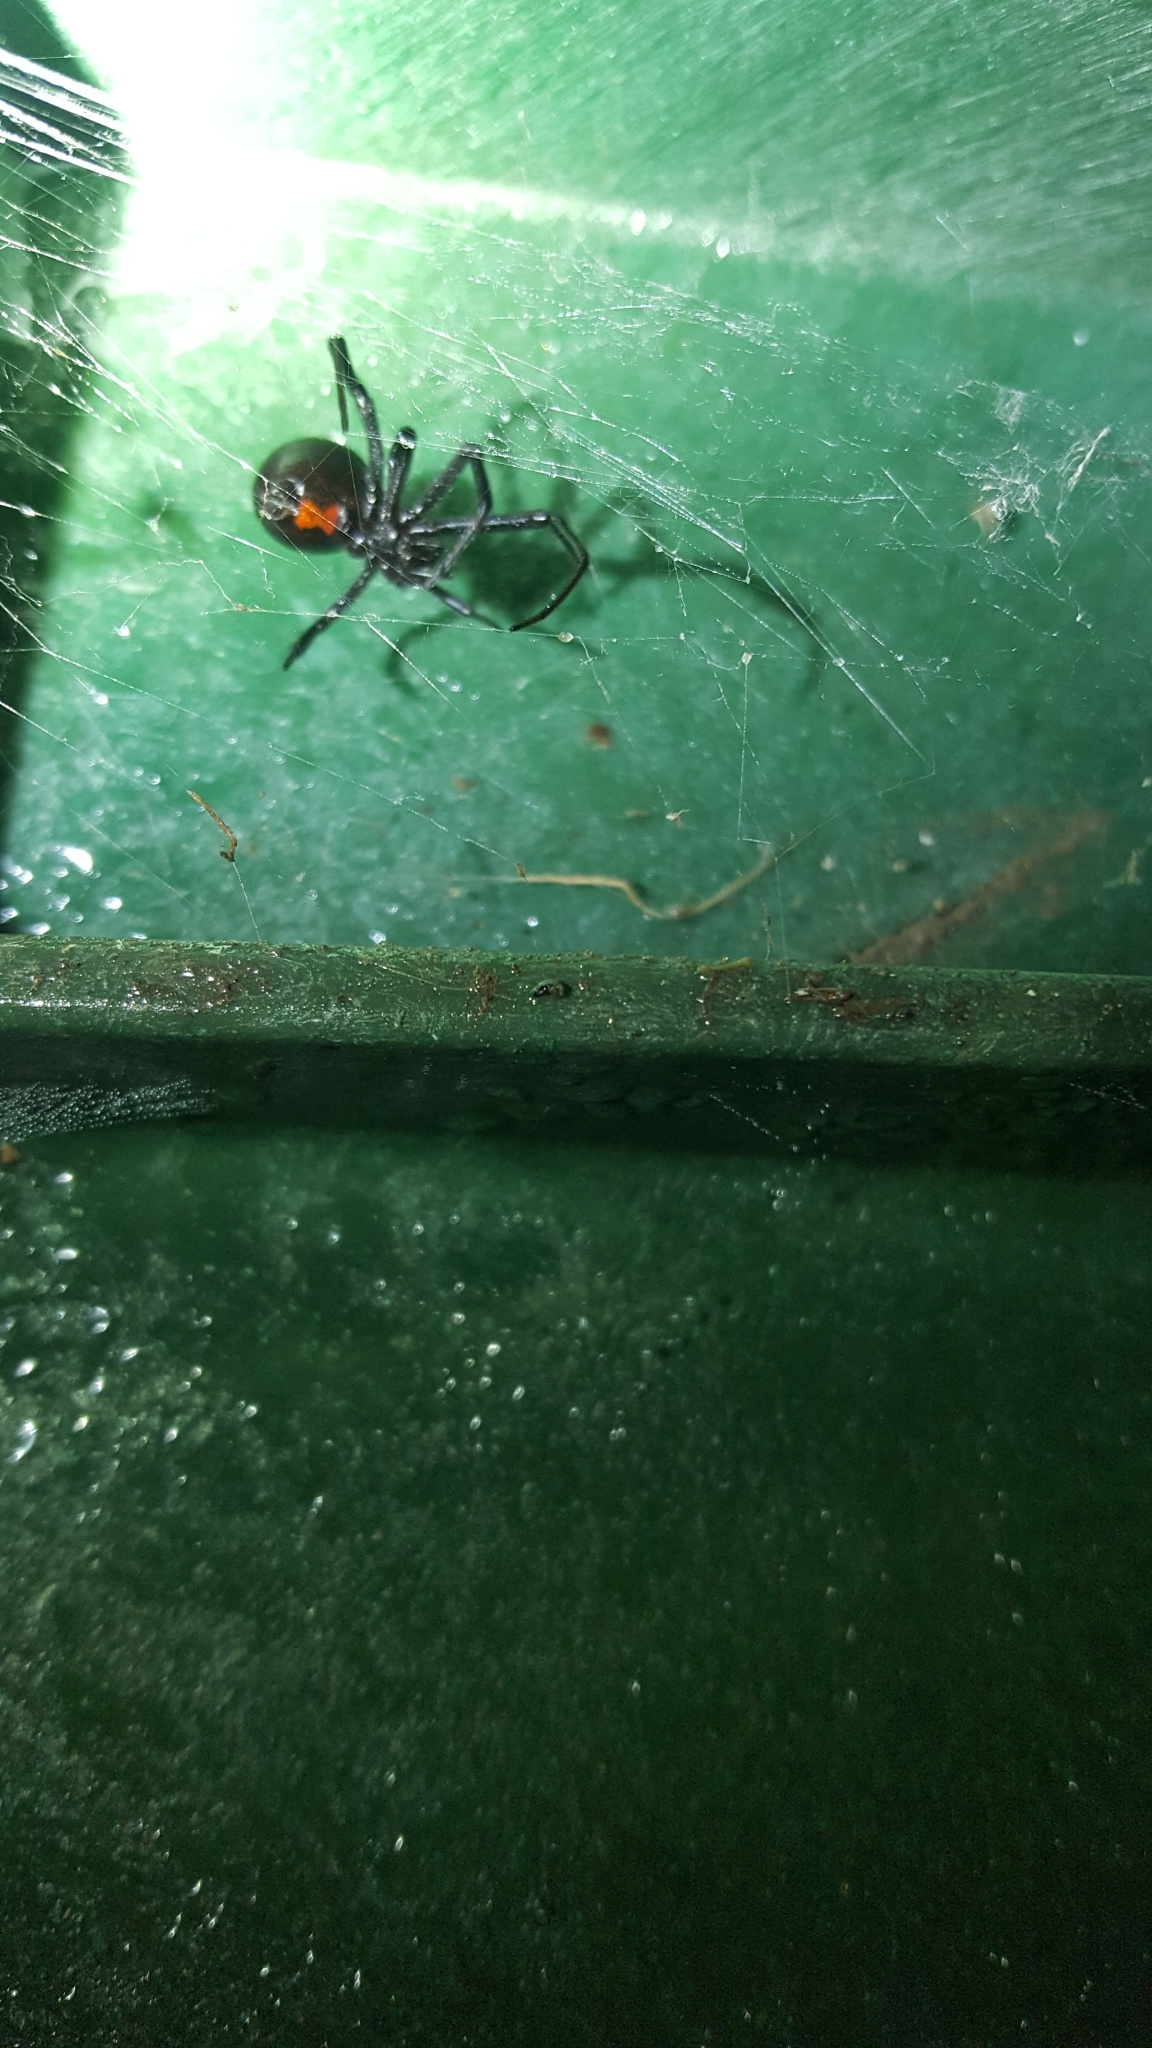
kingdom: Animalia
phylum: Arthropoda
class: Arachnida
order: Araneae
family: Theridiidae
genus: Latrodectus
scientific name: Latrodectus hesperus
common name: Western black widow
